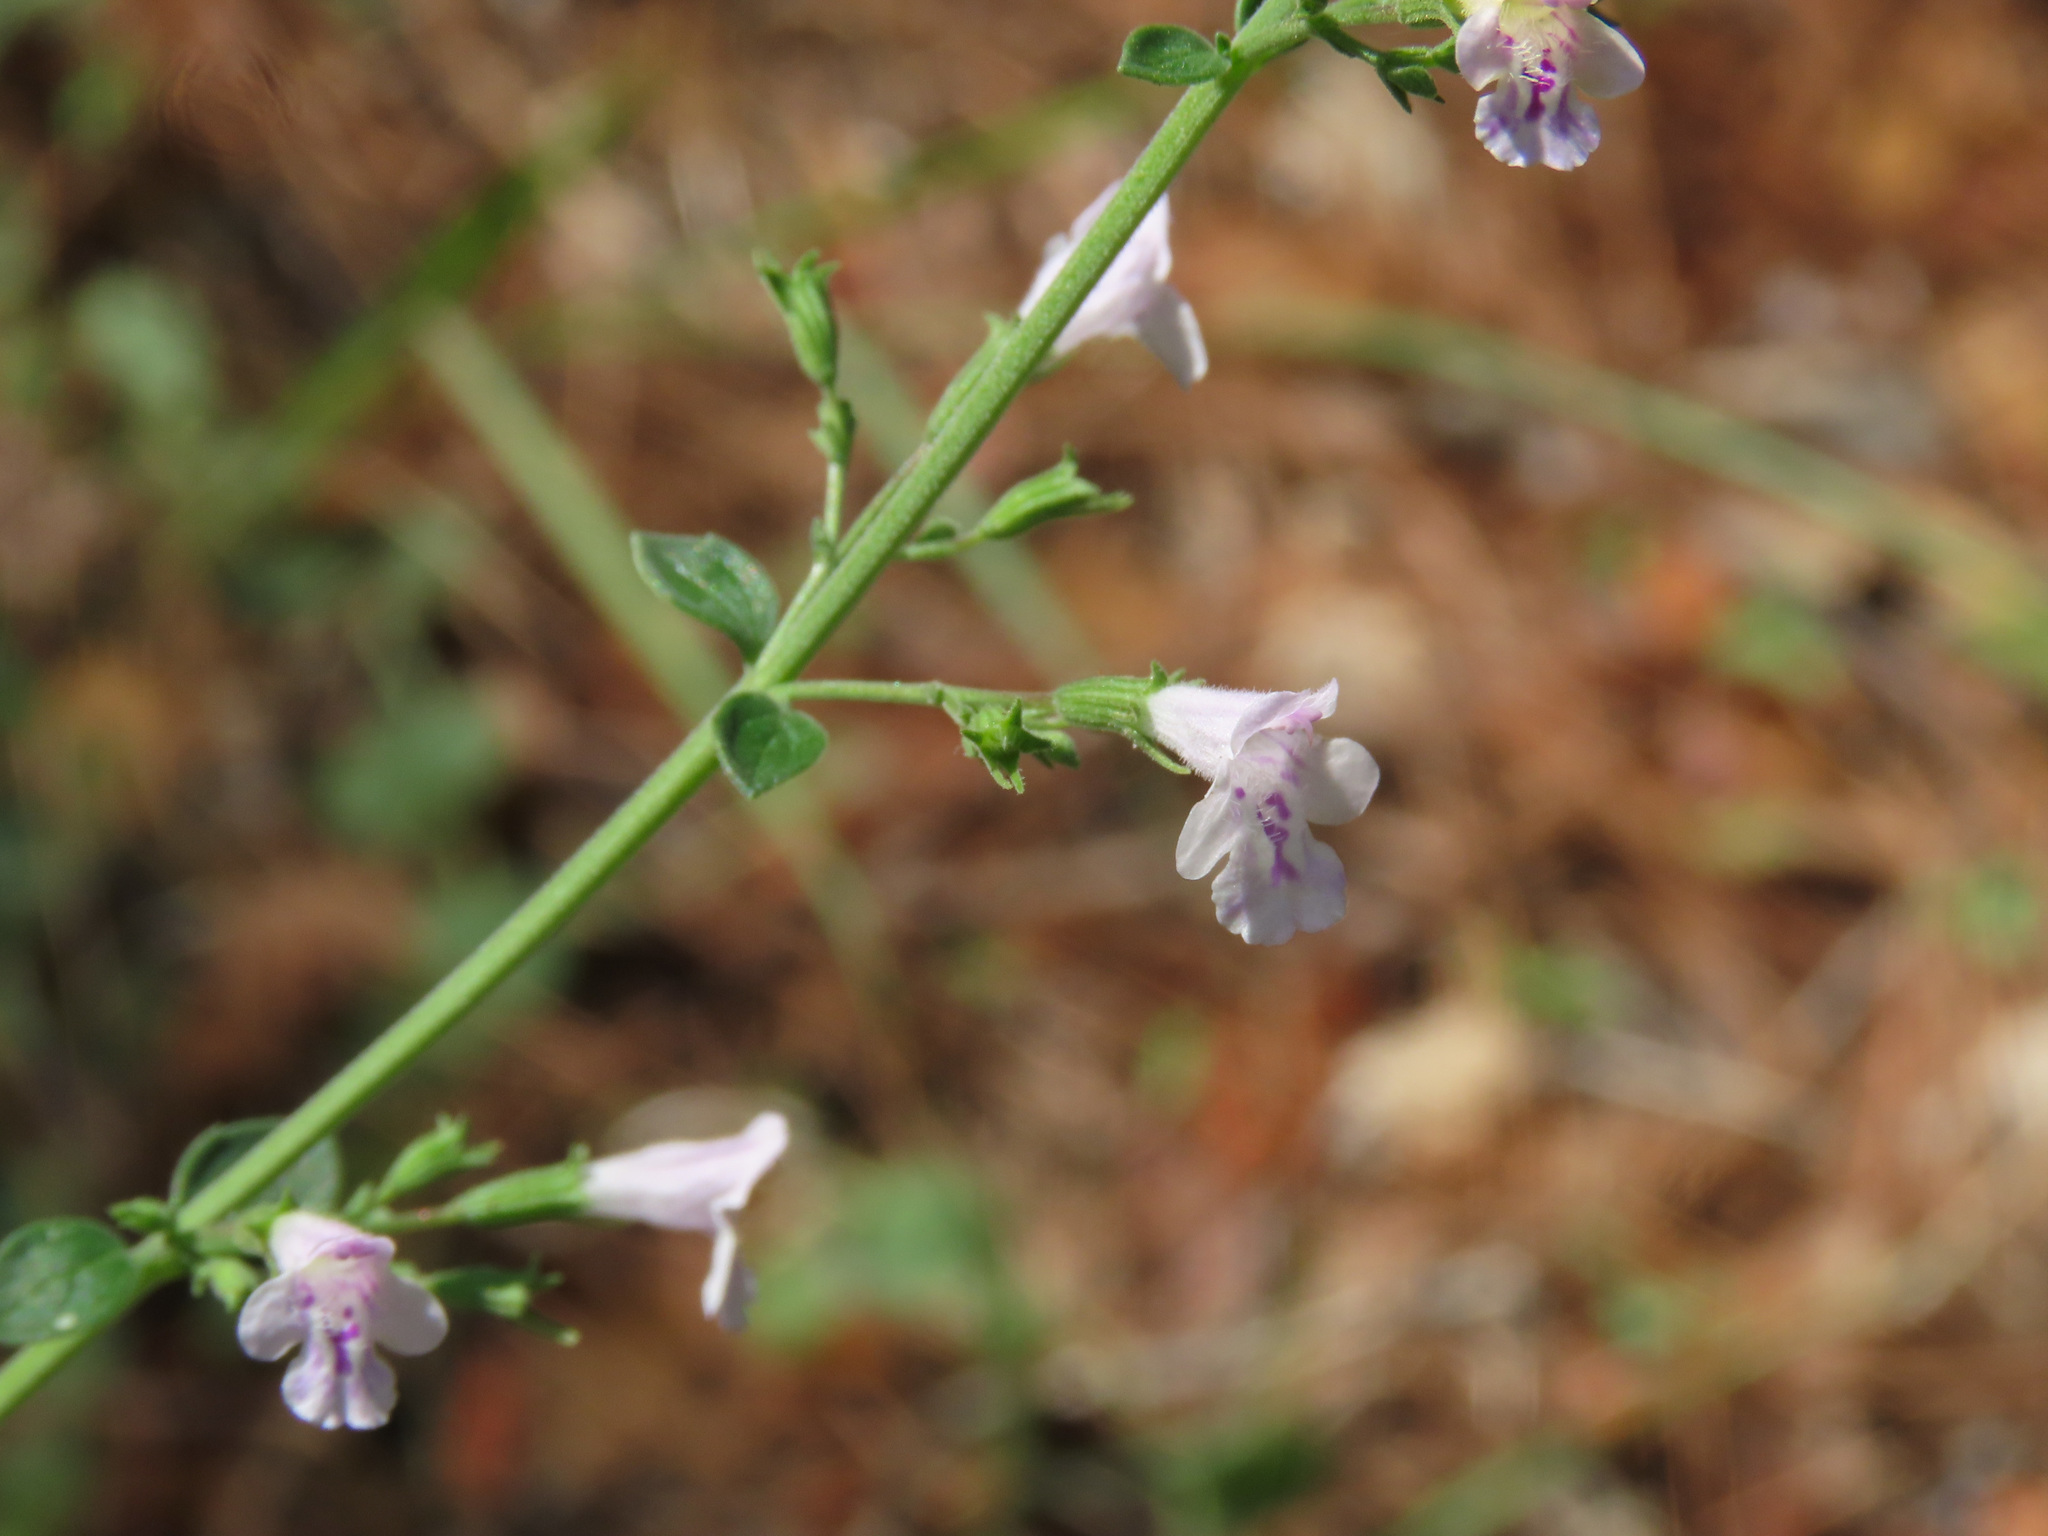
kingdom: Plantae
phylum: Tracheophyta
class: Magnoliopsida
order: Lamiales
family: Lamiaceae
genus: Clinopodium
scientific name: Clinopodium nepeta
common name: Lesser calamint
